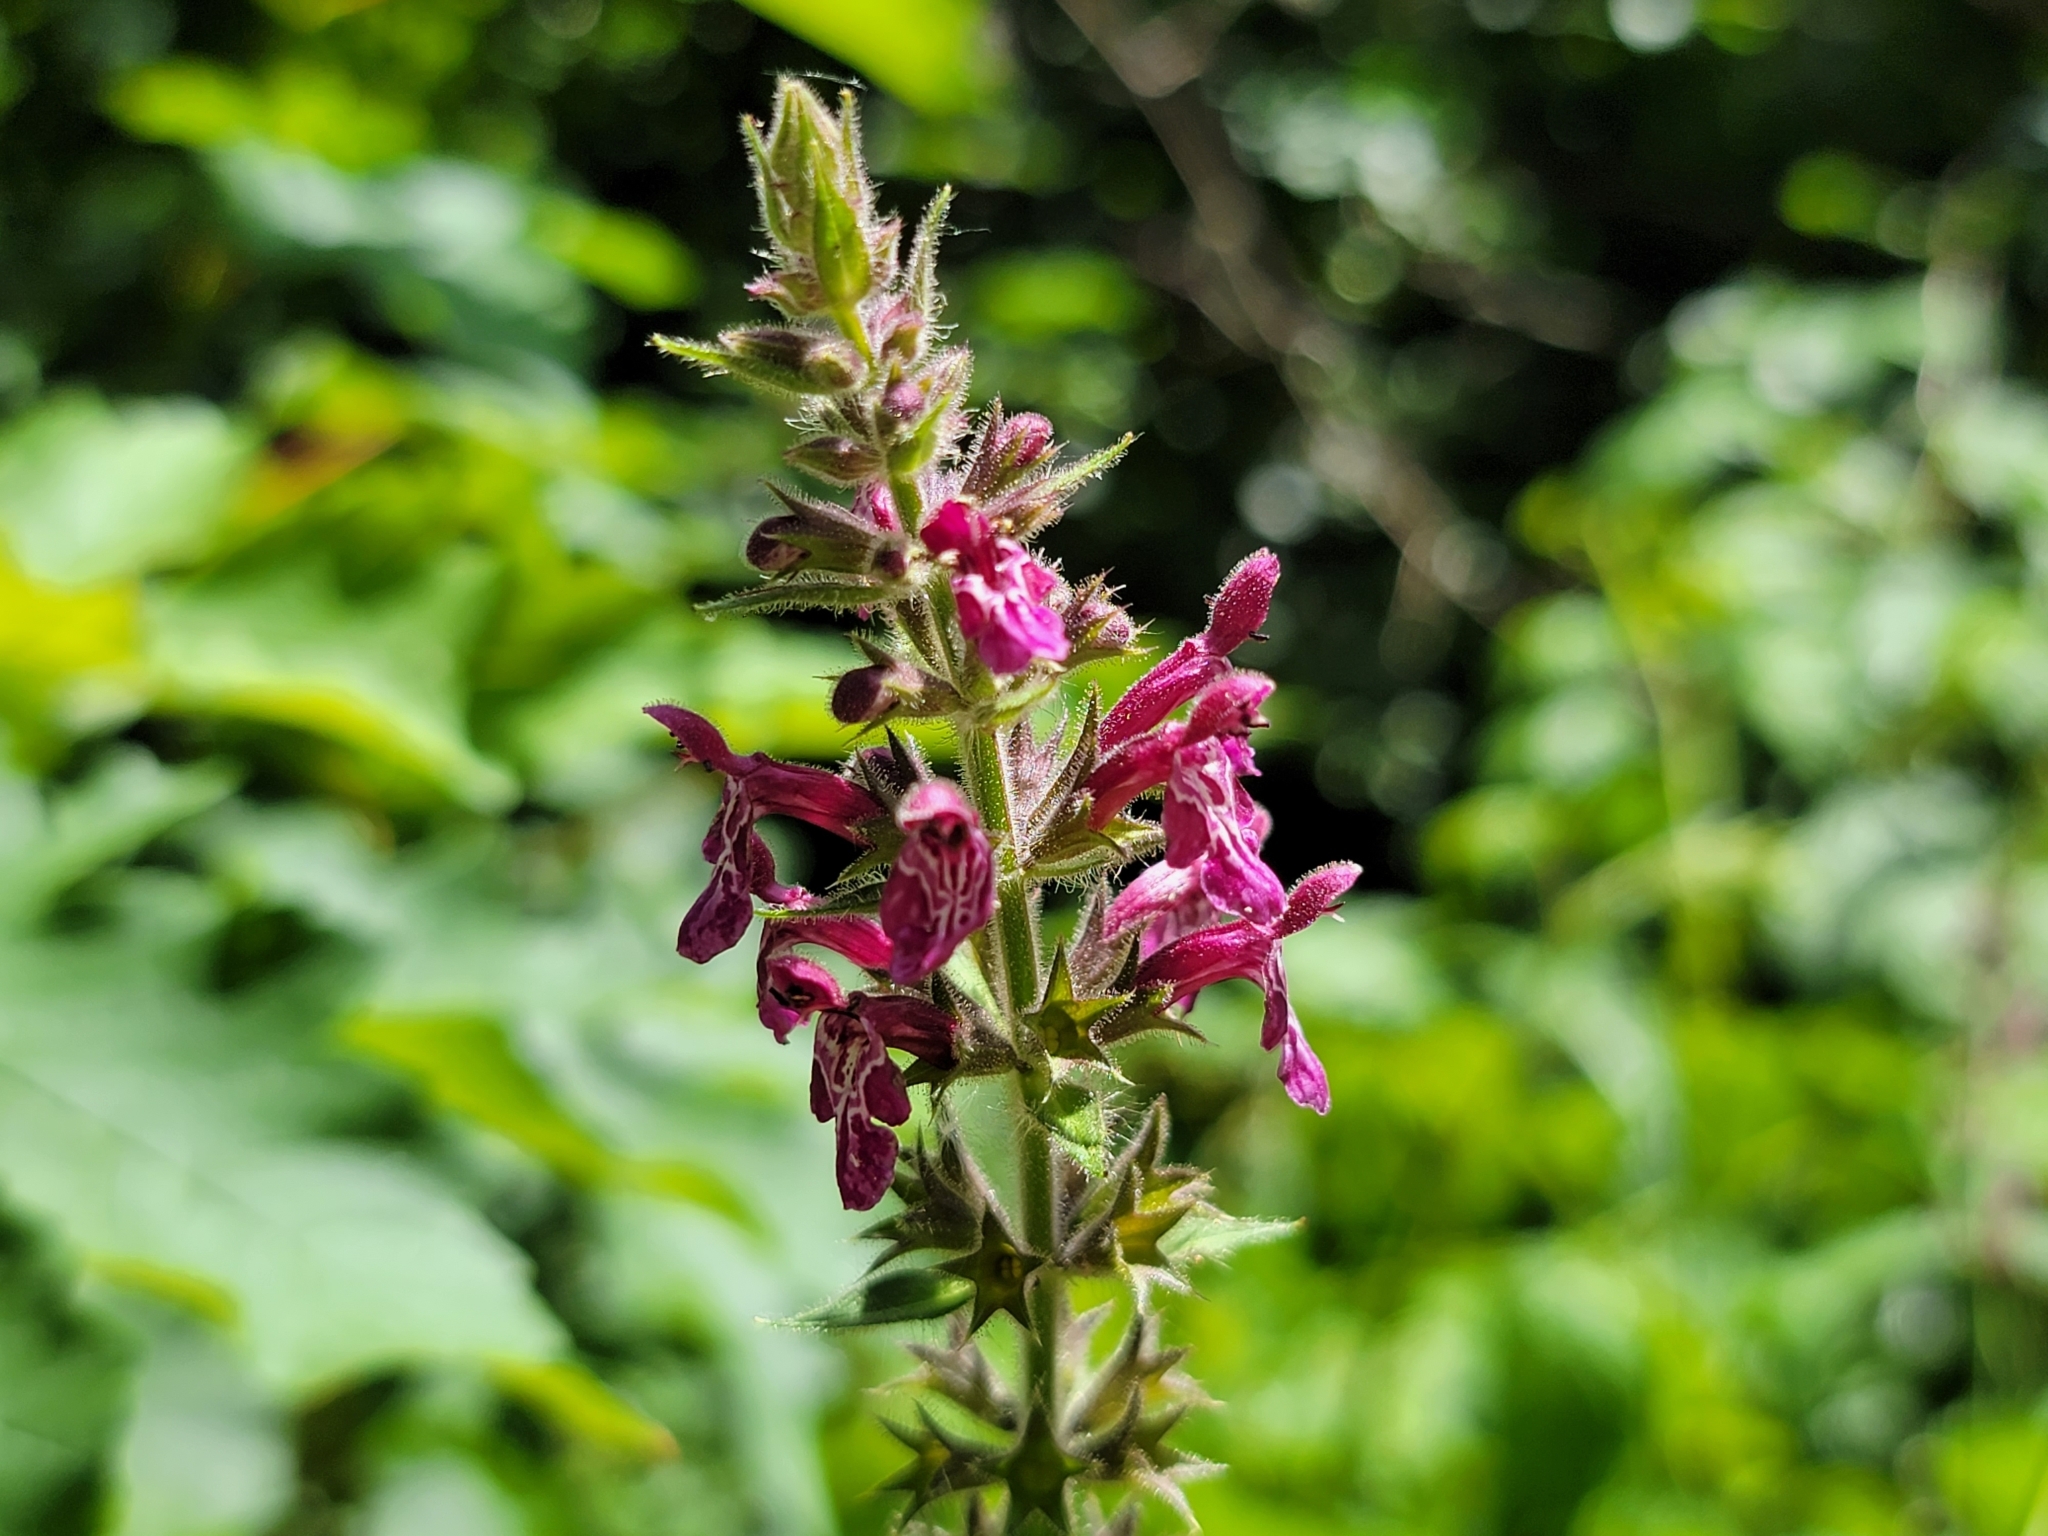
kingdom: Plantae
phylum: Tracheophyta
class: Magnoliopsida
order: Lamiales
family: Lamiaceae
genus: Stachys
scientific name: Stachys sylvatica
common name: Hedge woundwort
